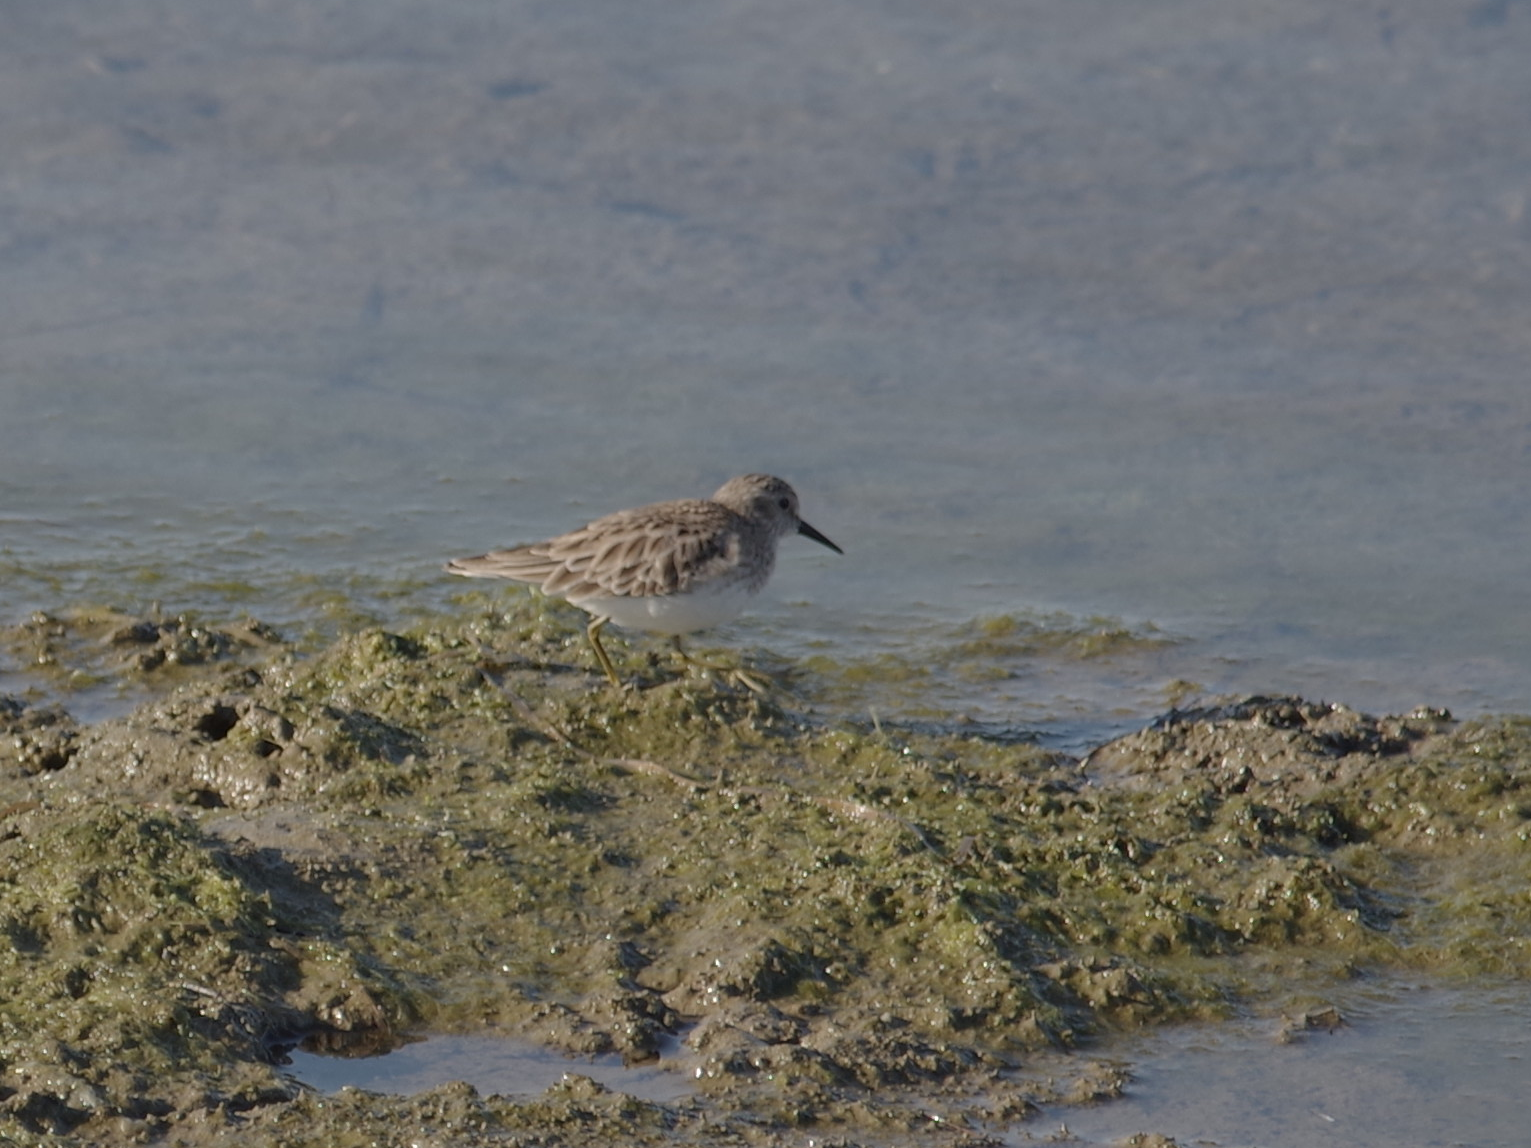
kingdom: Animalia
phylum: Chordata
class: Aves
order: Charadriiformes
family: Scolopacidae
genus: Calidris
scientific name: Calidris minutilla
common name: Least sandpiper
